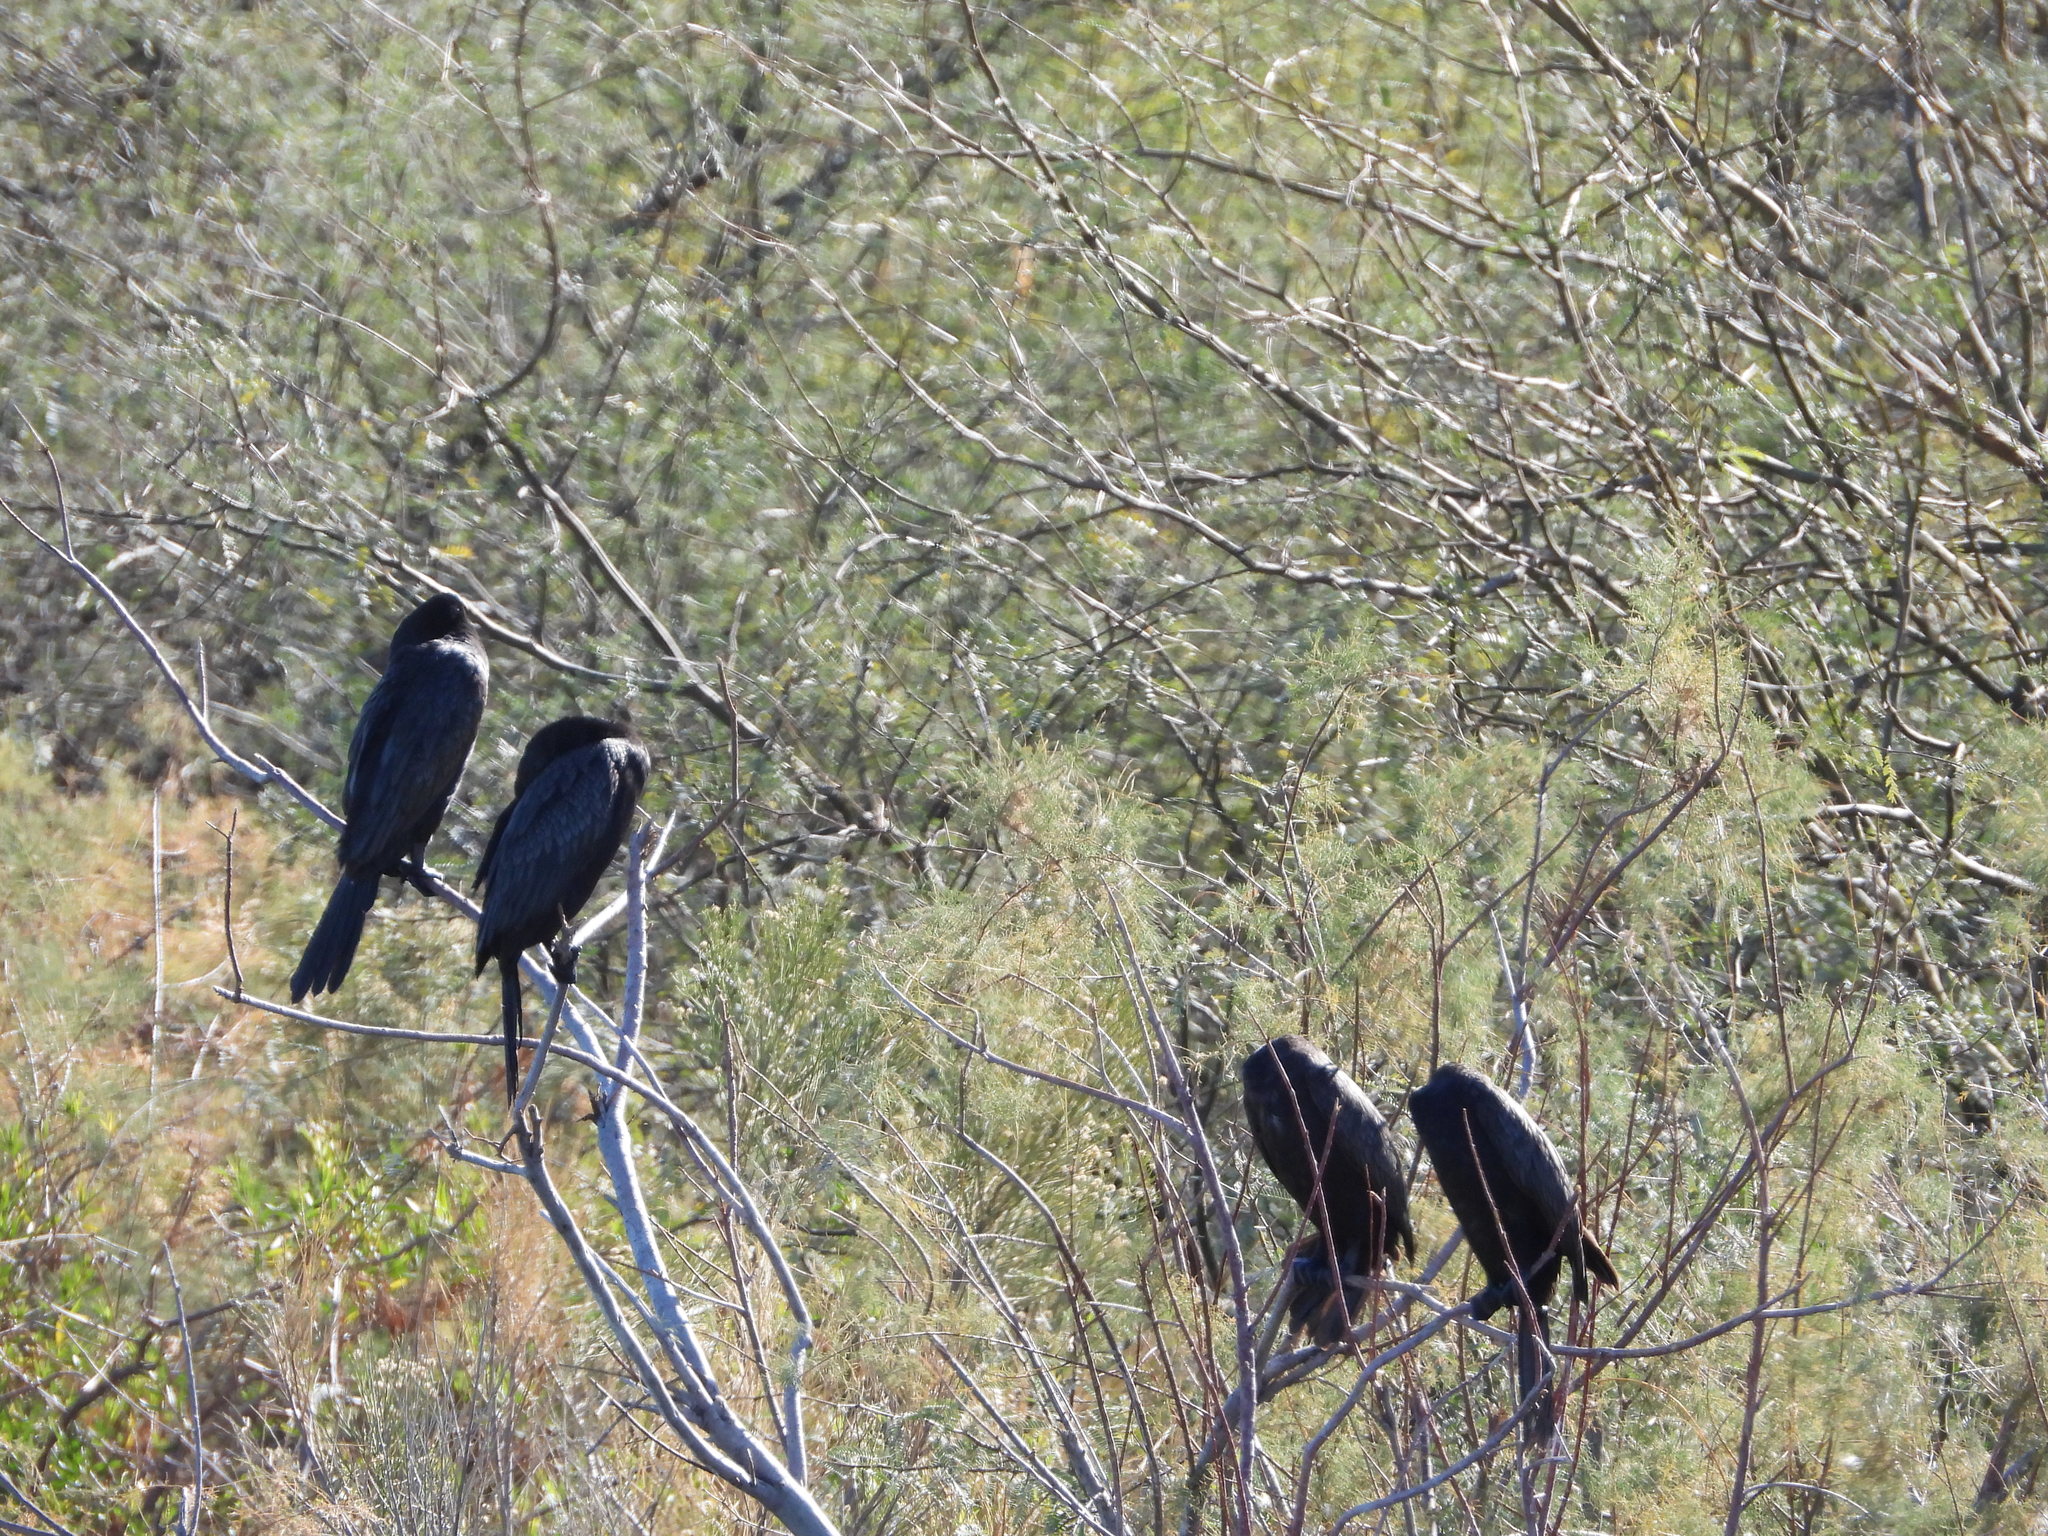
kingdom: Animalia
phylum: Chordata
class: Aves
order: Suliformes
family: Phalacrocoracidae
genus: Phalacrocorax
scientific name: Phalacrocorax brasilianus
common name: Neotropic cormorant
